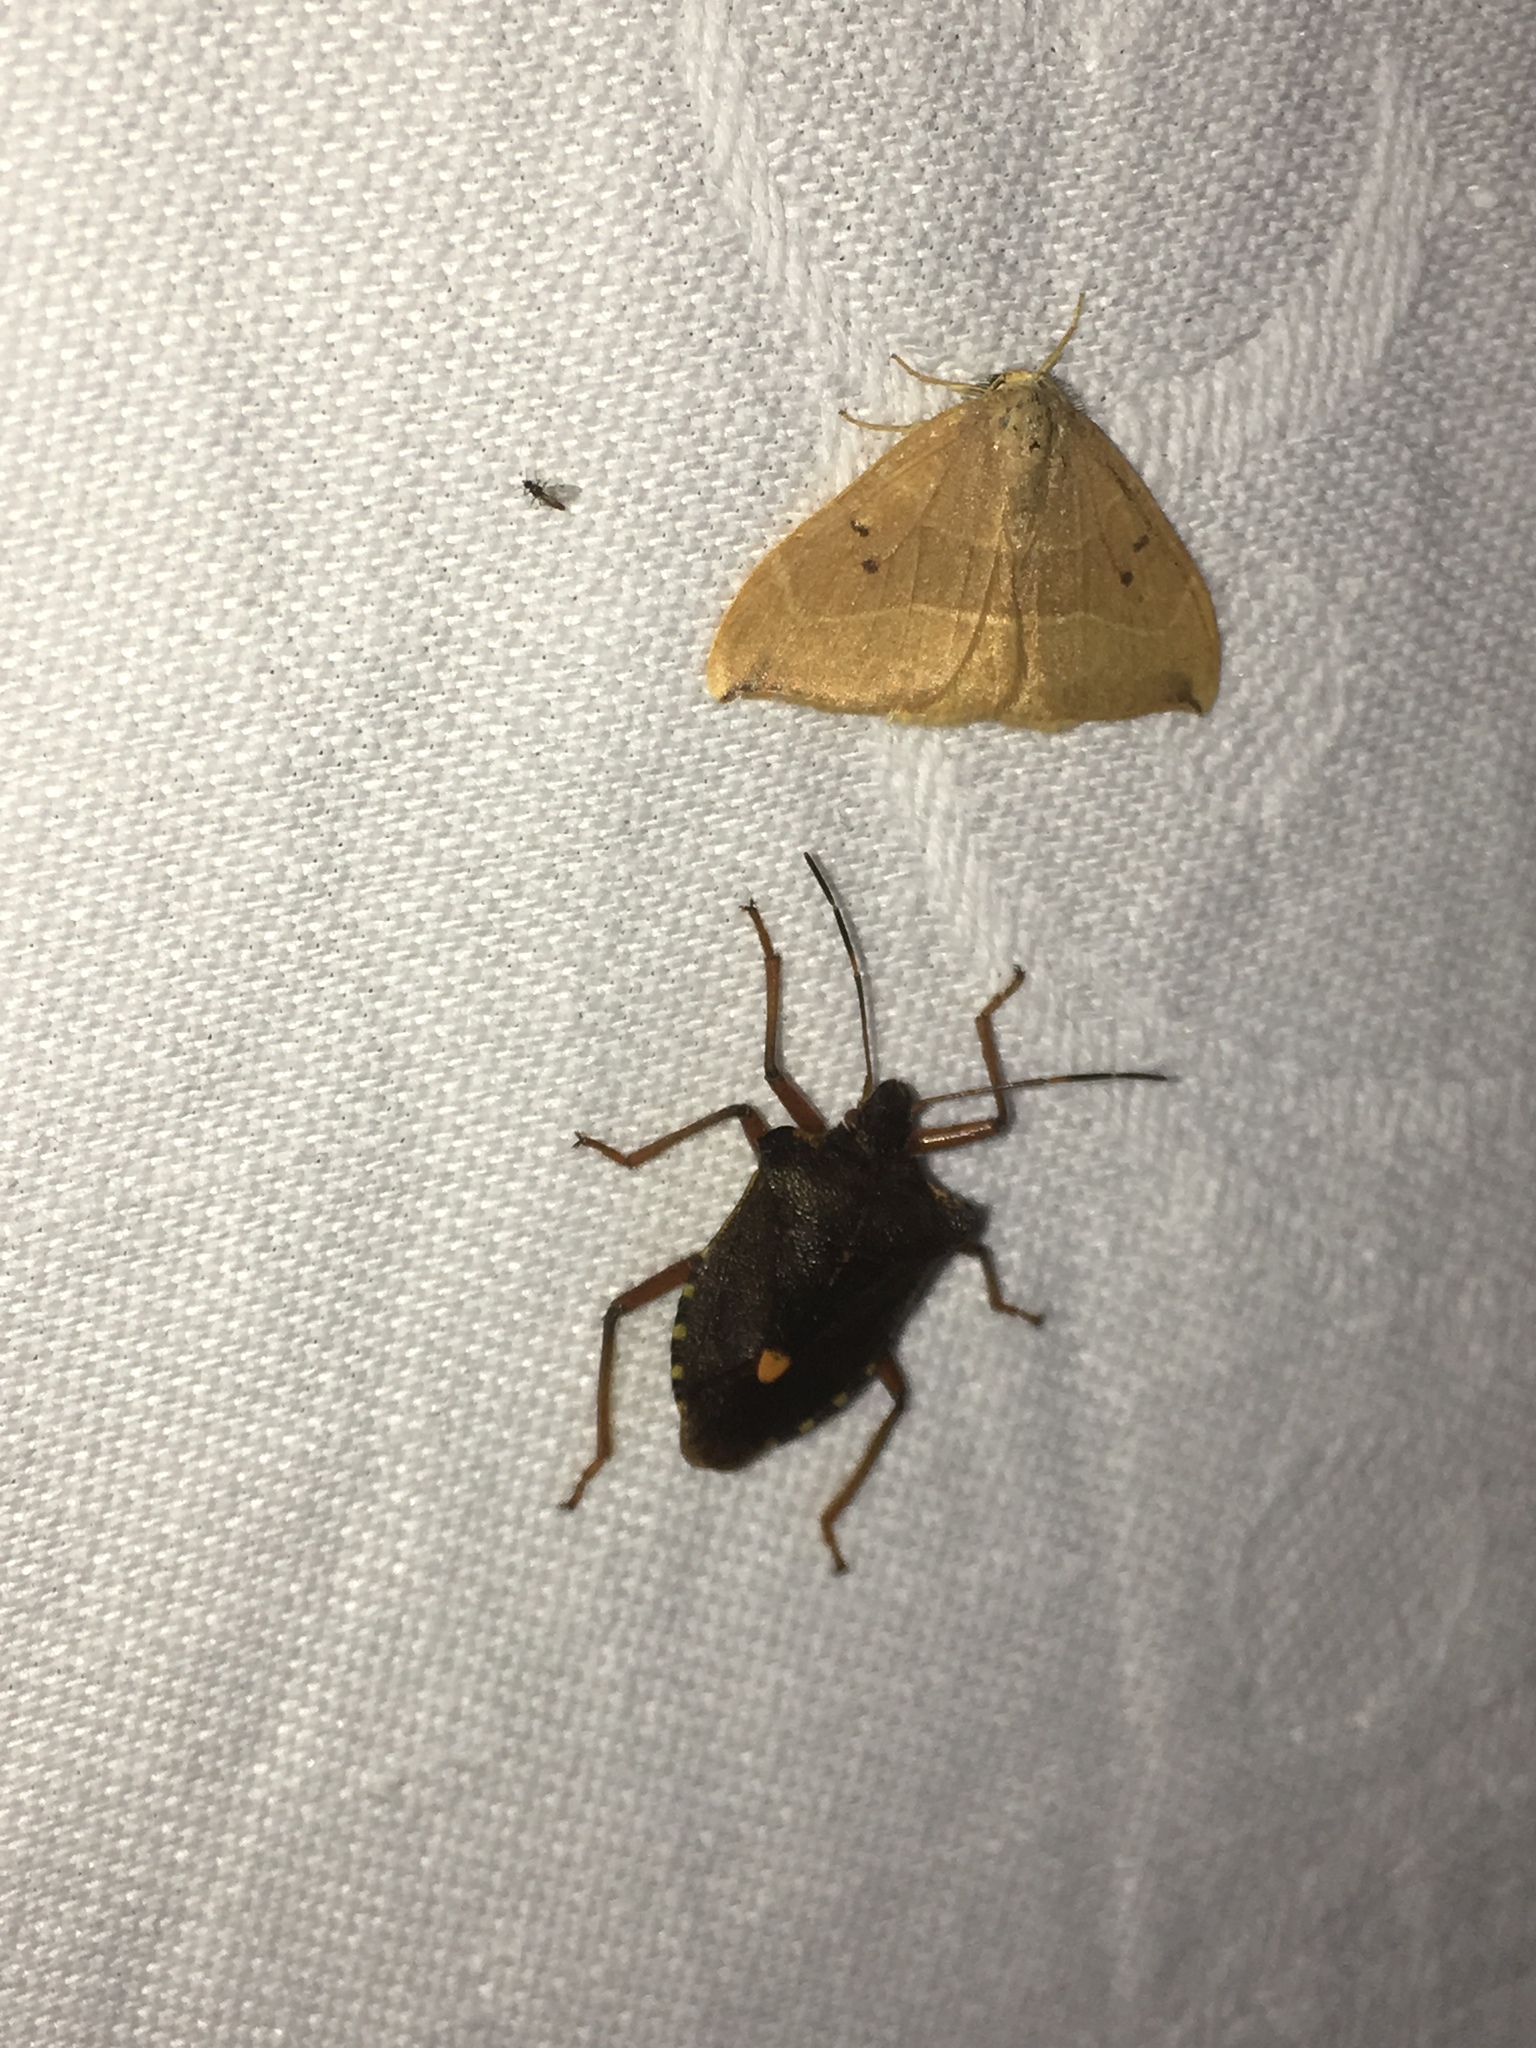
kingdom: Animalia
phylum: Arthropoda
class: Insecta
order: Hemiptera
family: Pentatomidae
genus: Pentatoma
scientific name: Pentatoma rufipes
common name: Forest bug
